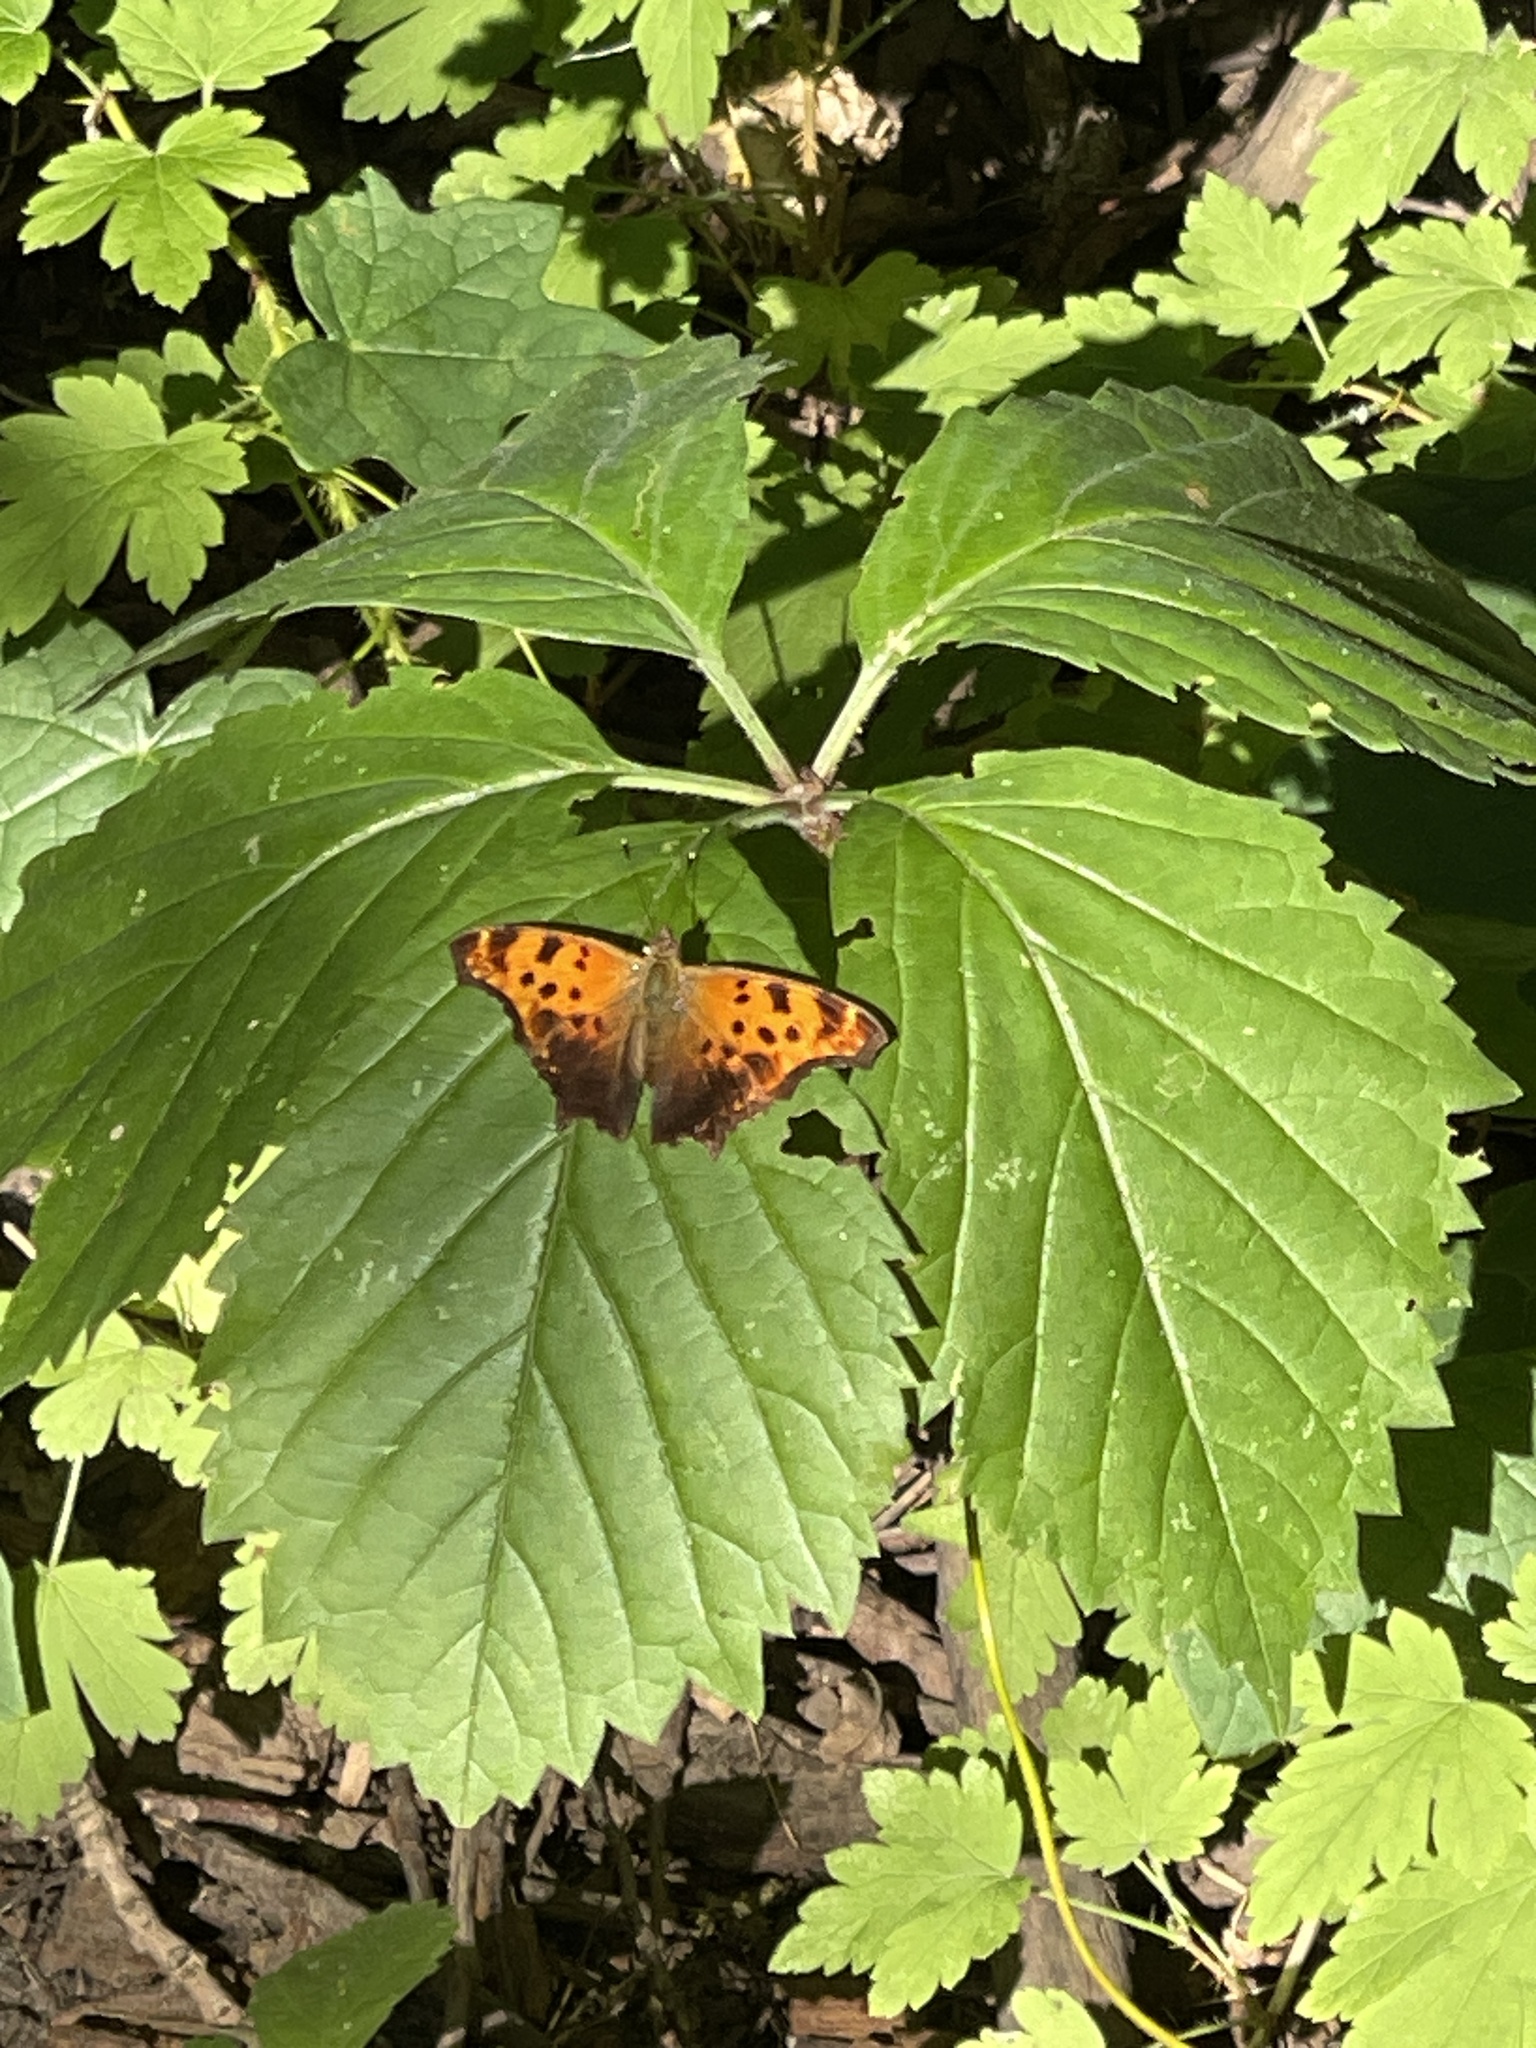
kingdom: Animalia
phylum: Arthropoda
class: Insecta
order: Lepidoptera
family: Nymphalidae
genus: Polygonia
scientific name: Polygonia comma
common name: Eastern comma
